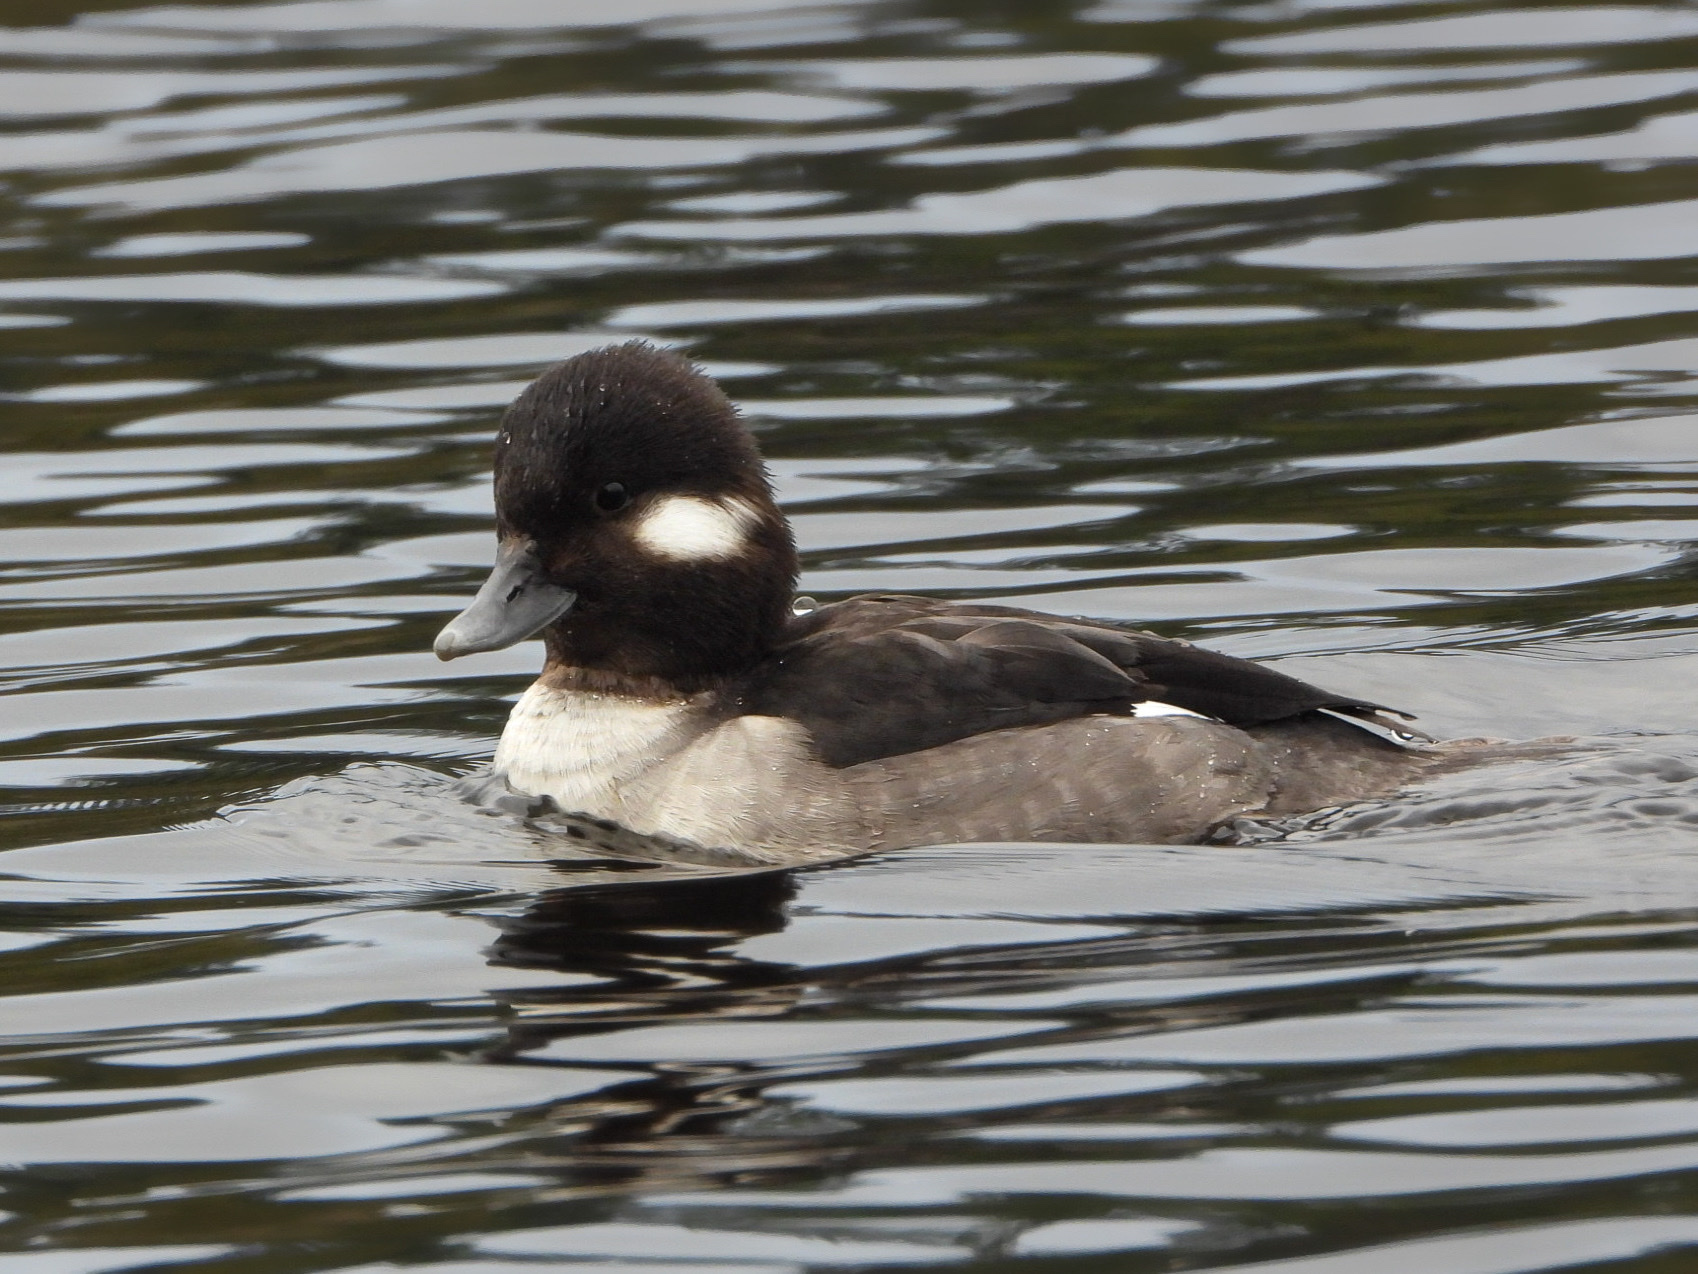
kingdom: Animalia
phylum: Chordata
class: Aves
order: Anseriformes
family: Anatidae
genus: Bucephala
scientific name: Bucephala albeola
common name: Bufflehead
